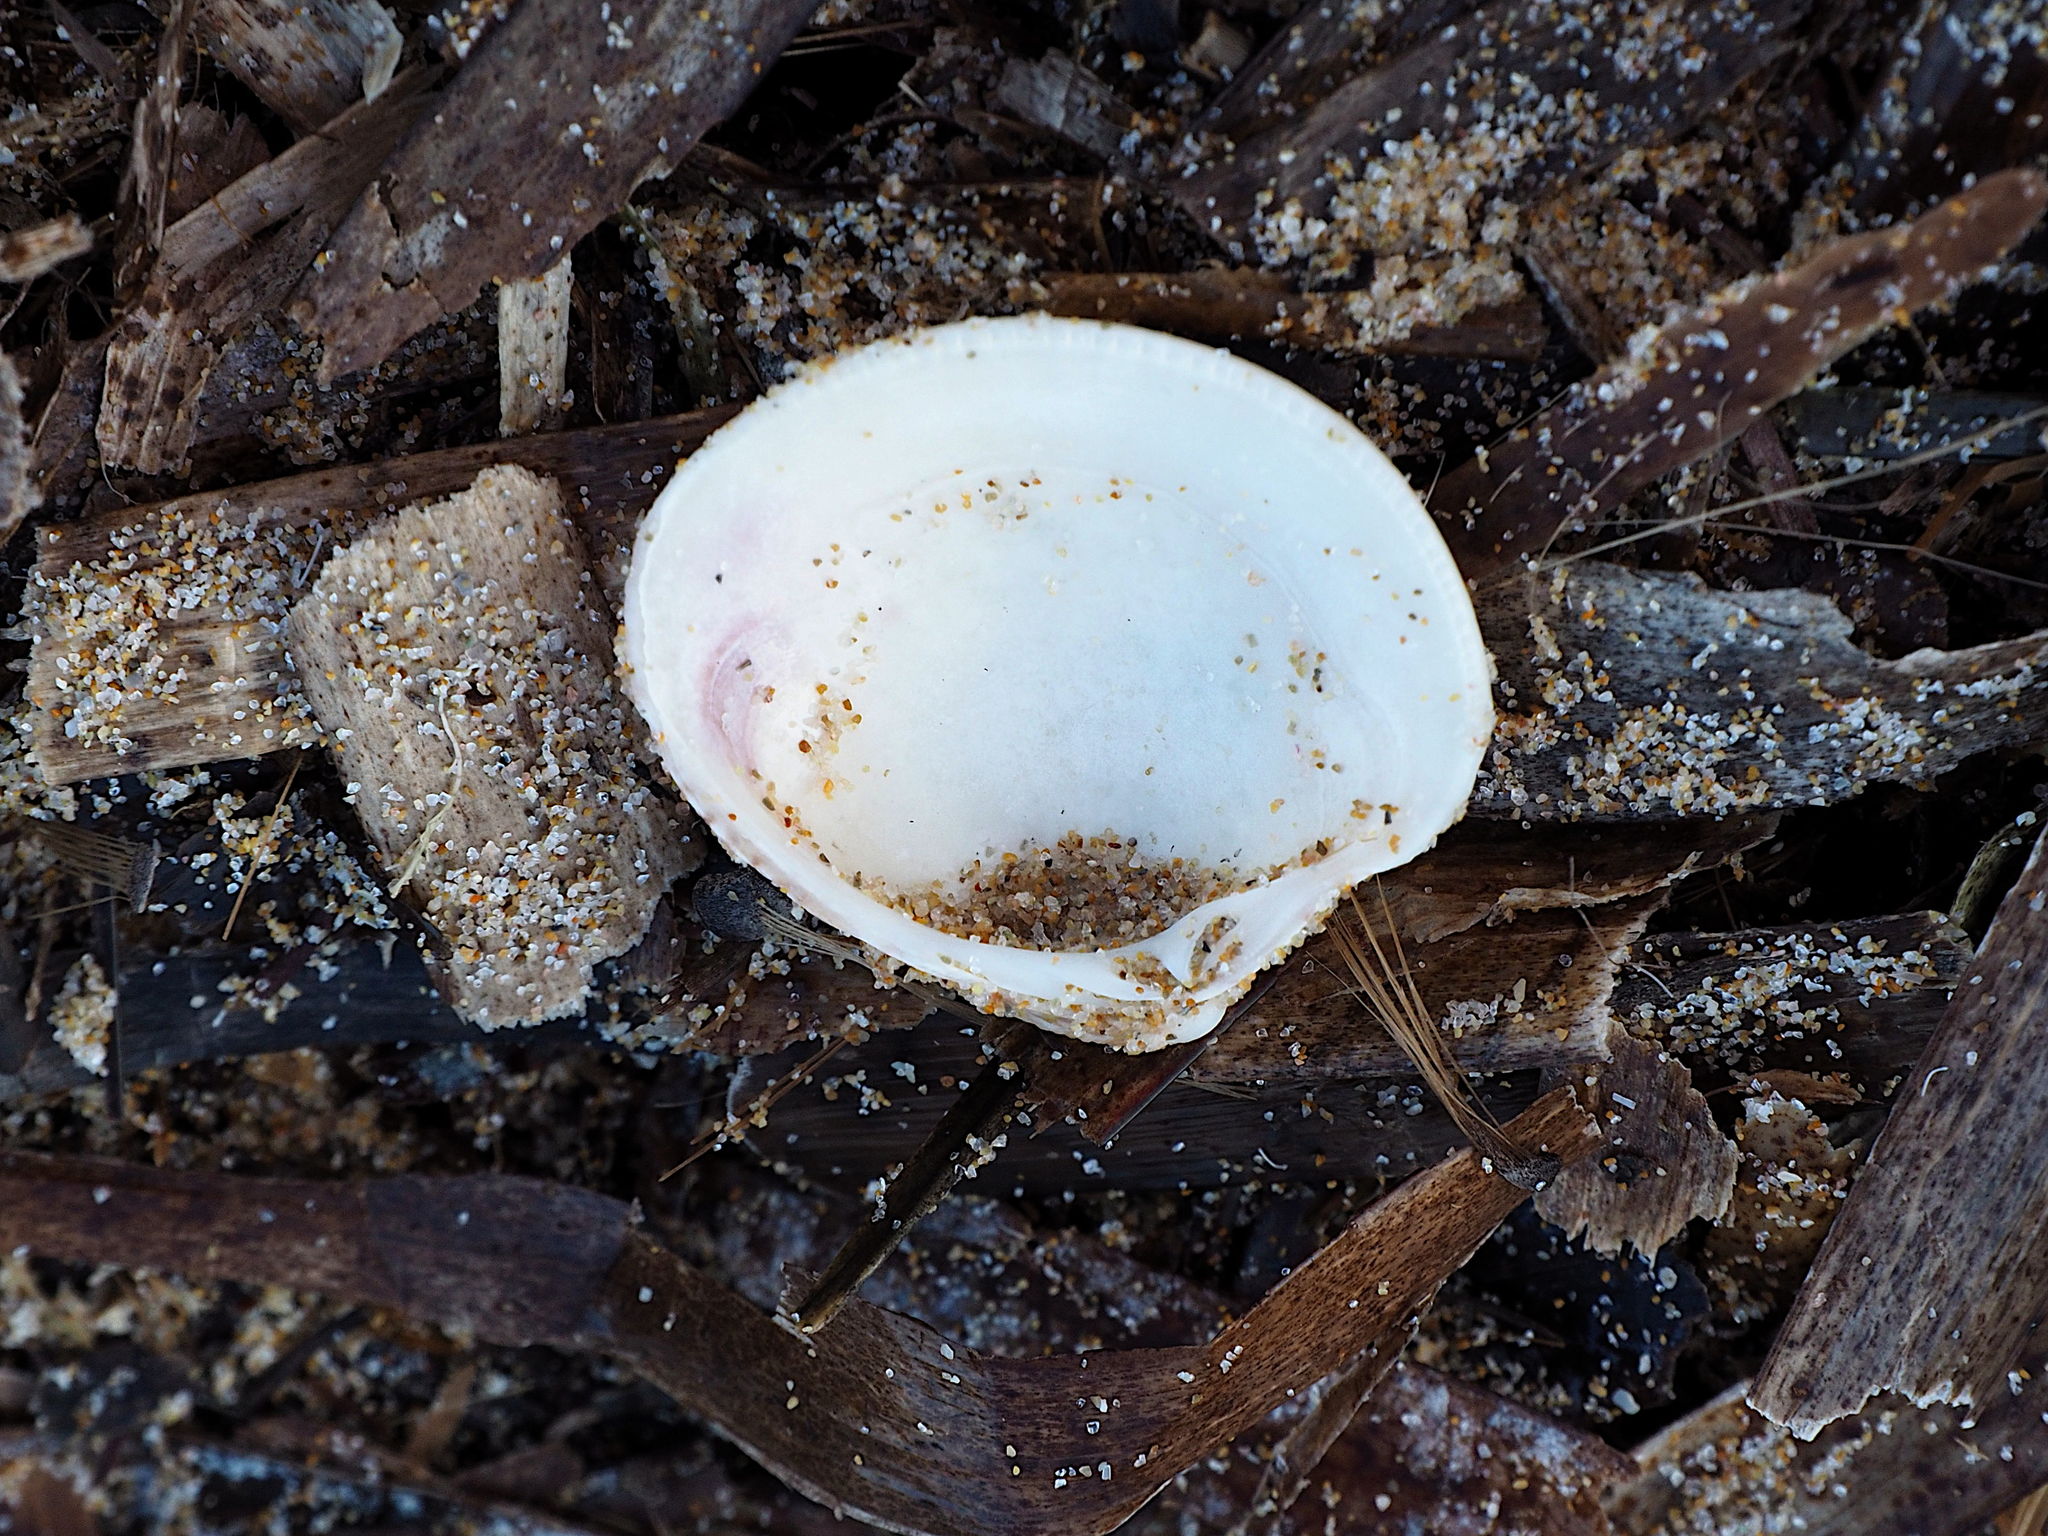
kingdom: Animalia
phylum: Mollusca
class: Bivalvia
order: Venerida
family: Veneridae
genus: Chamelea
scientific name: Chamelea gallina
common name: Chicken venus
